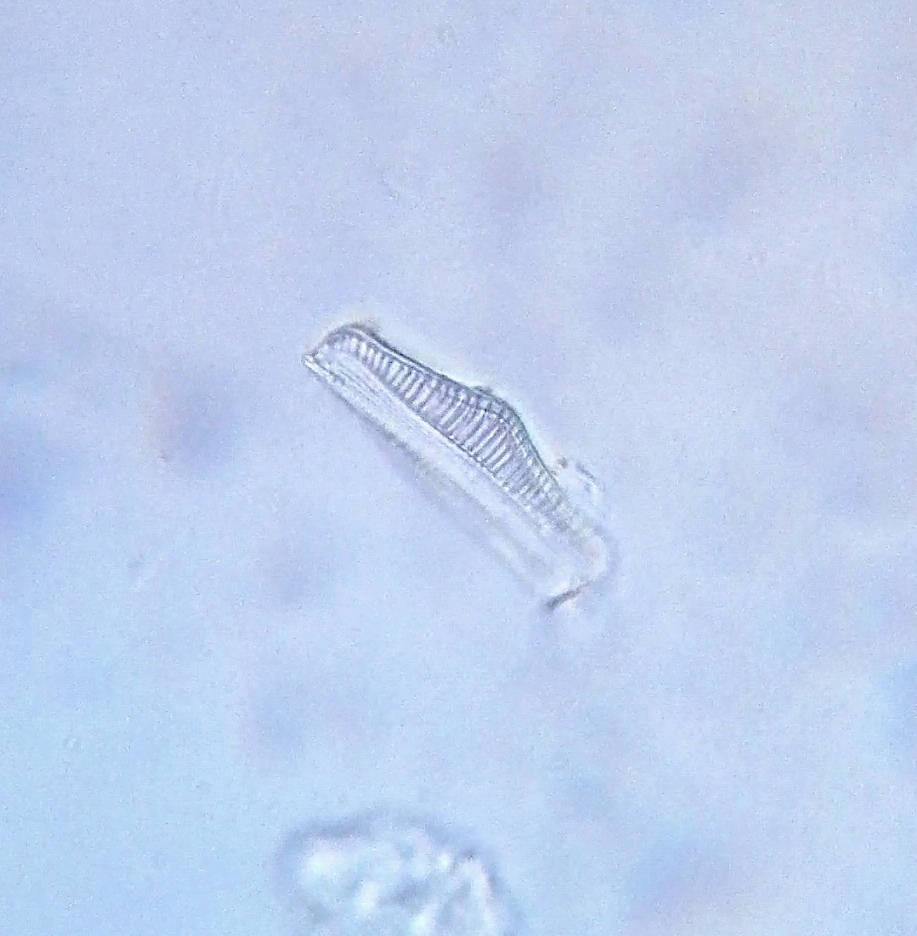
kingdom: Chromista
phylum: Ochrophyta
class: Bacillariophyceae
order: Rhopalodiales
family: Rhopalodiaceae
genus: Epithemia
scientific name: Epithemia gibba
